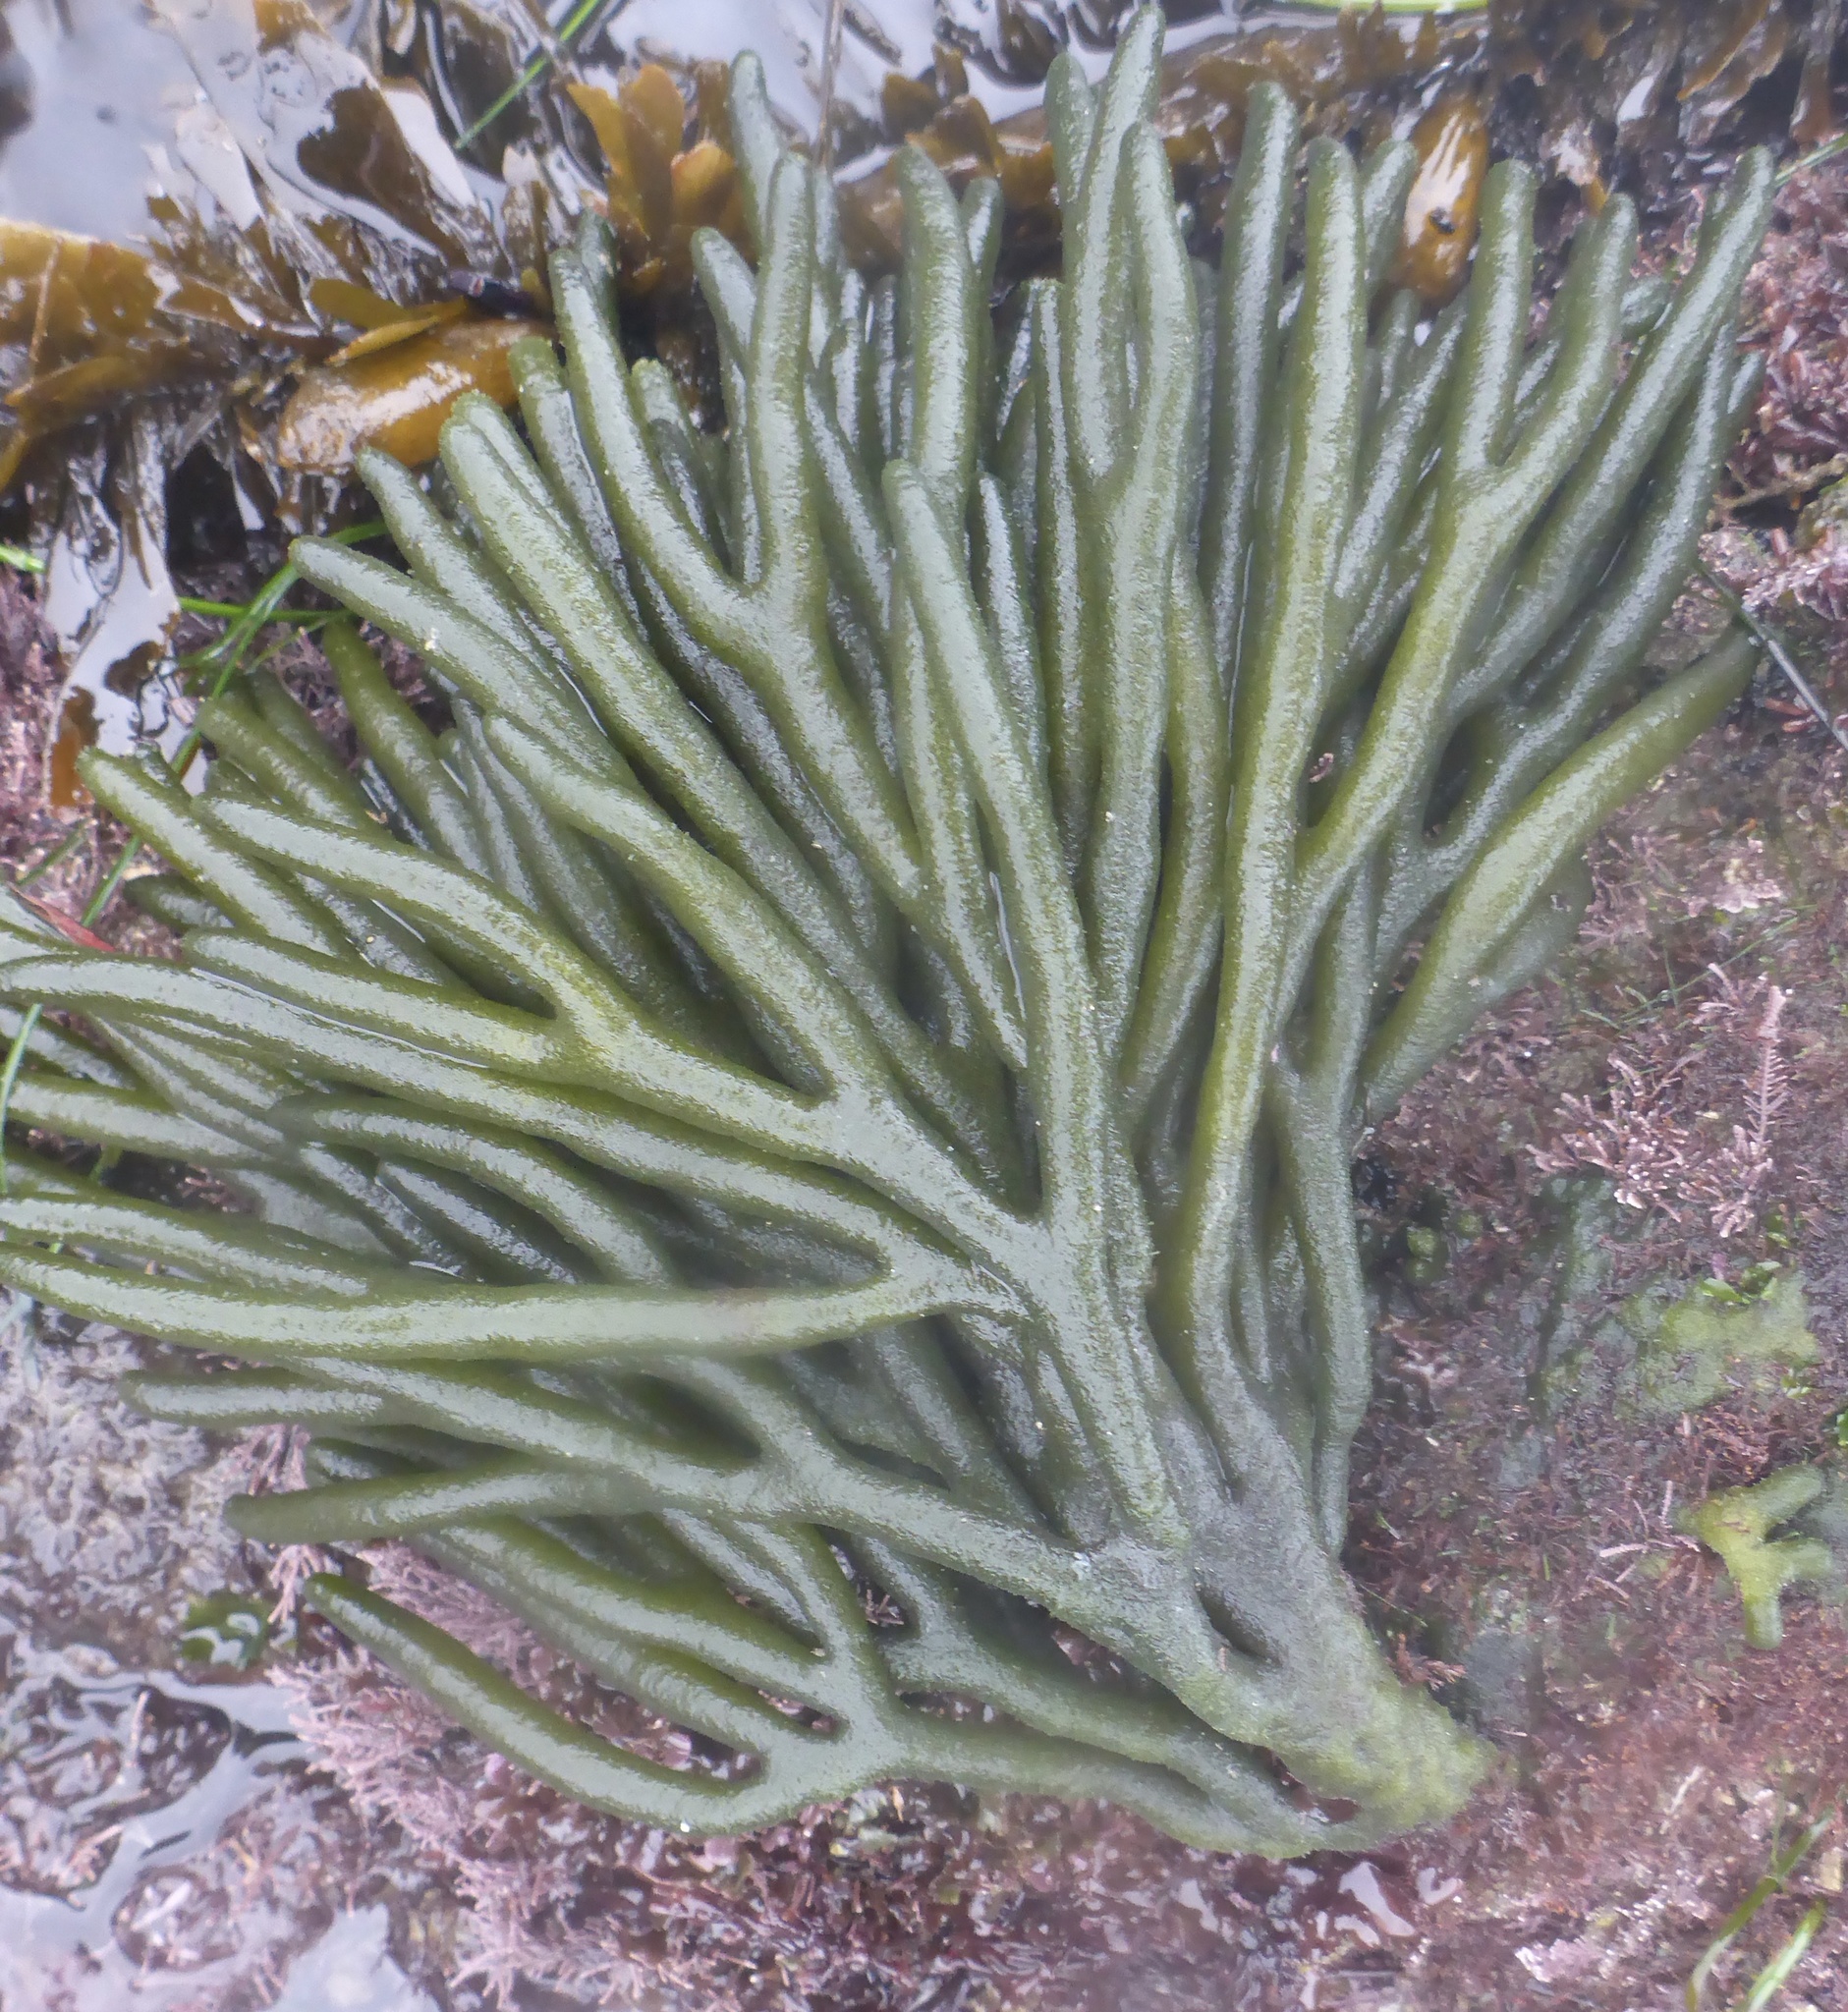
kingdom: Plantae
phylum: Chlorophyta
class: Ulvophyceae
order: Bryopsidales
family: Codiaceae
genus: Codium
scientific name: Codium fragile
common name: Dead man's fingers
